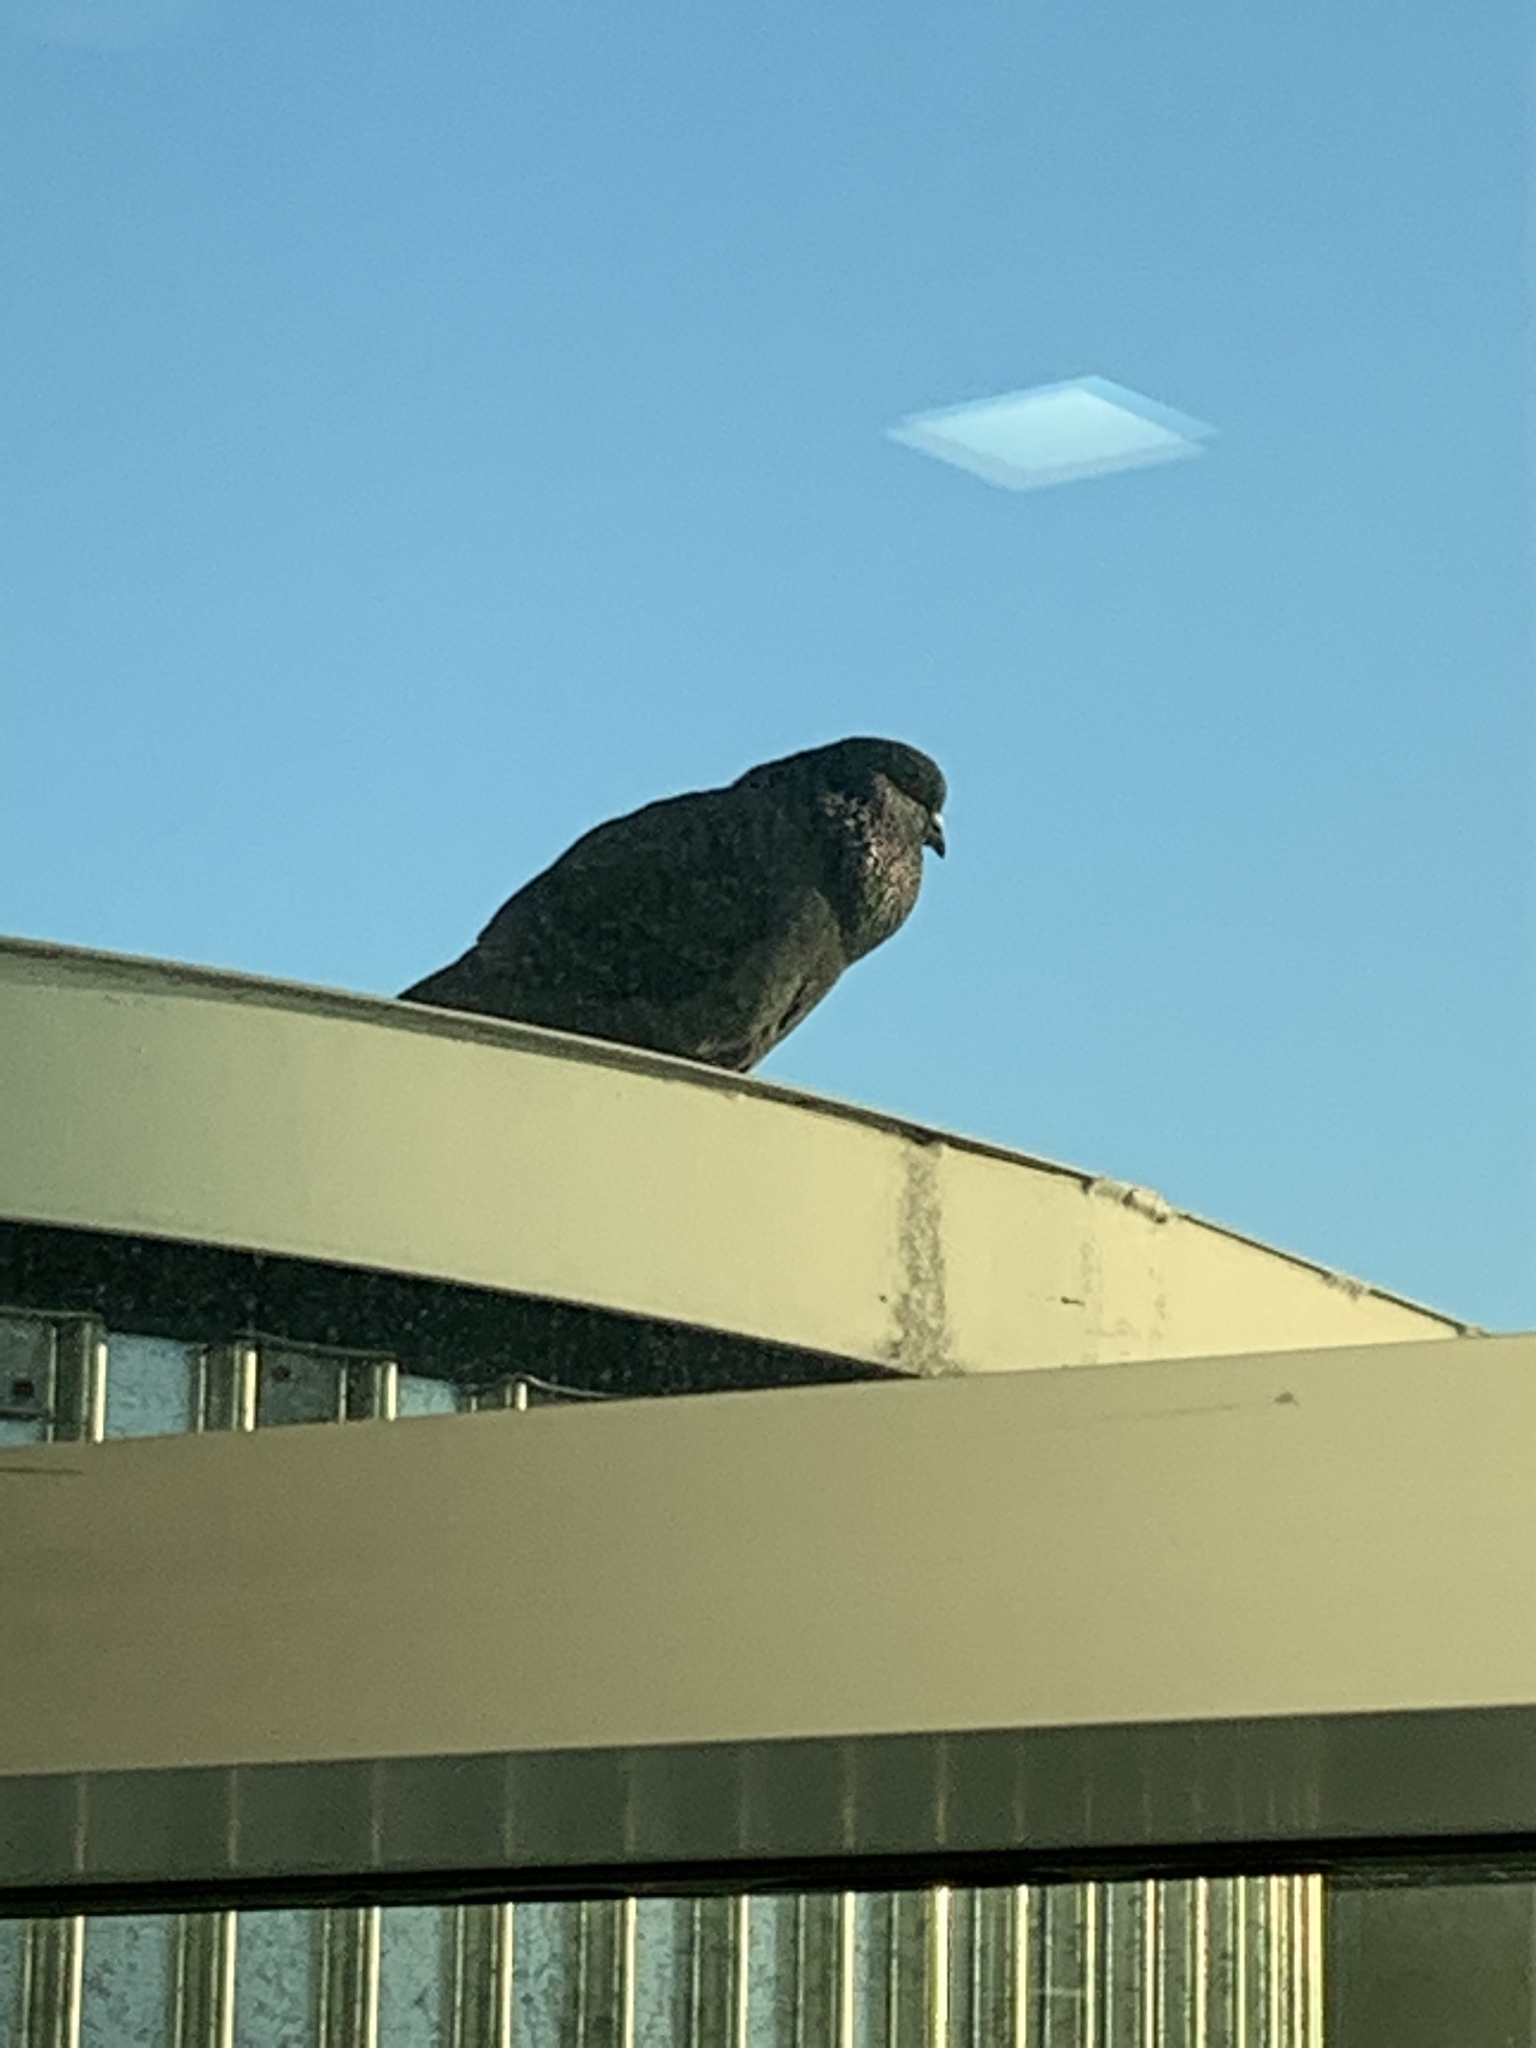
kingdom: Animalia
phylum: Chordata
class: Aves
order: Columbiformes
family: Columbidae
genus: Columba
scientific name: Columba livia
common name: Rock pigeon
